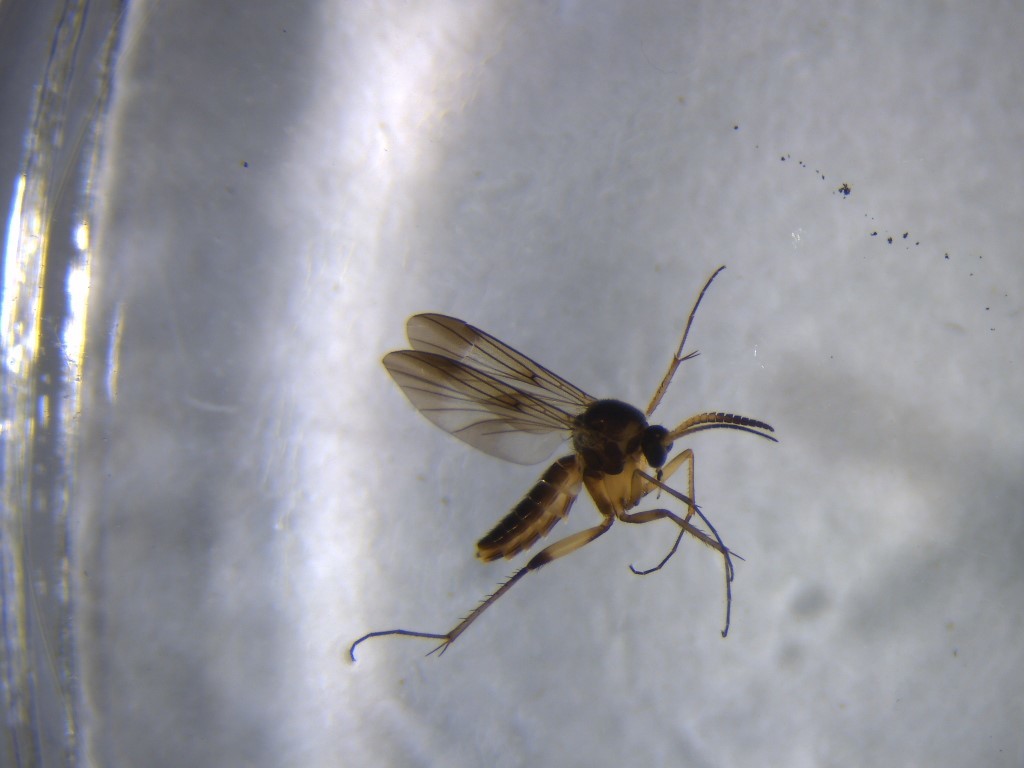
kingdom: Animalia
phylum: Arthropoda
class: Insecta
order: Diptera
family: Mycetophilidae
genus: Allocotocera
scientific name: Allocotocera crassipalpis
